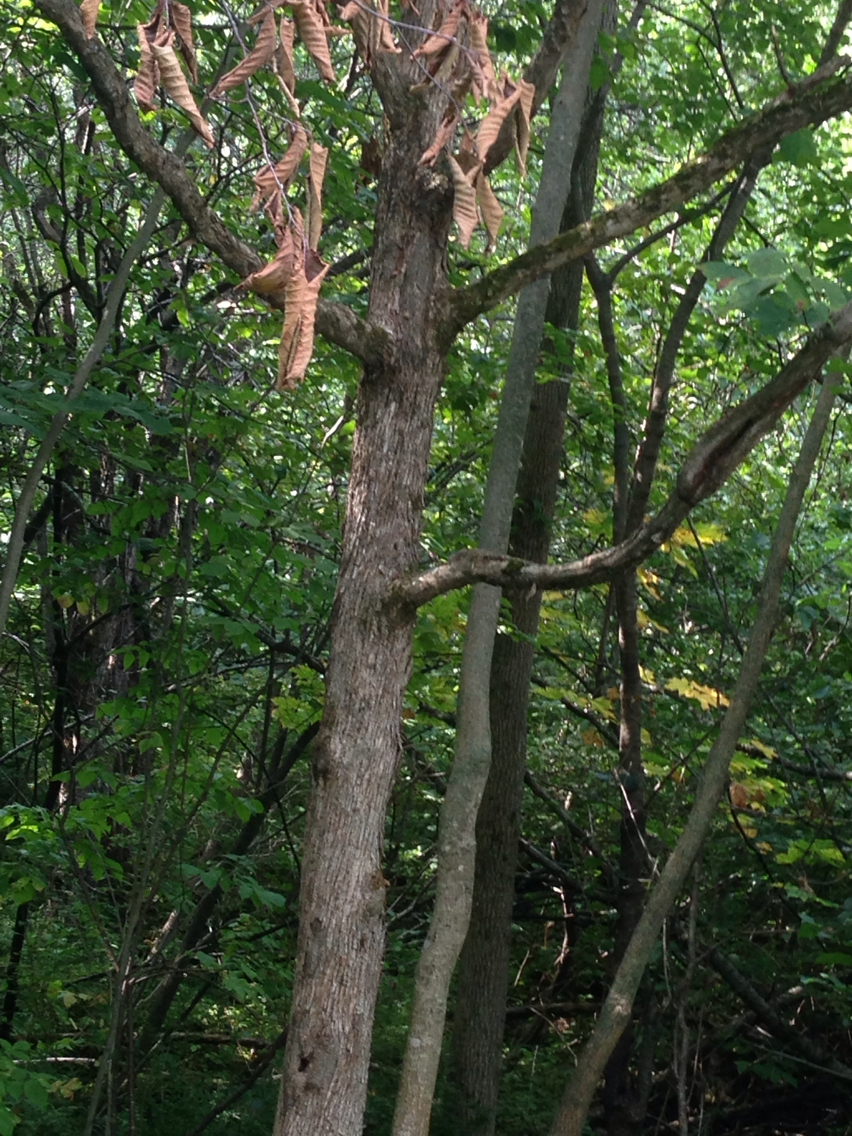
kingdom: Plantae
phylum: Tracheophyta
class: Magnoliopsida
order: Fagales
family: Betulaceae
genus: Ostrya
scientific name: Ostrya virginiana
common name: Ironwood
